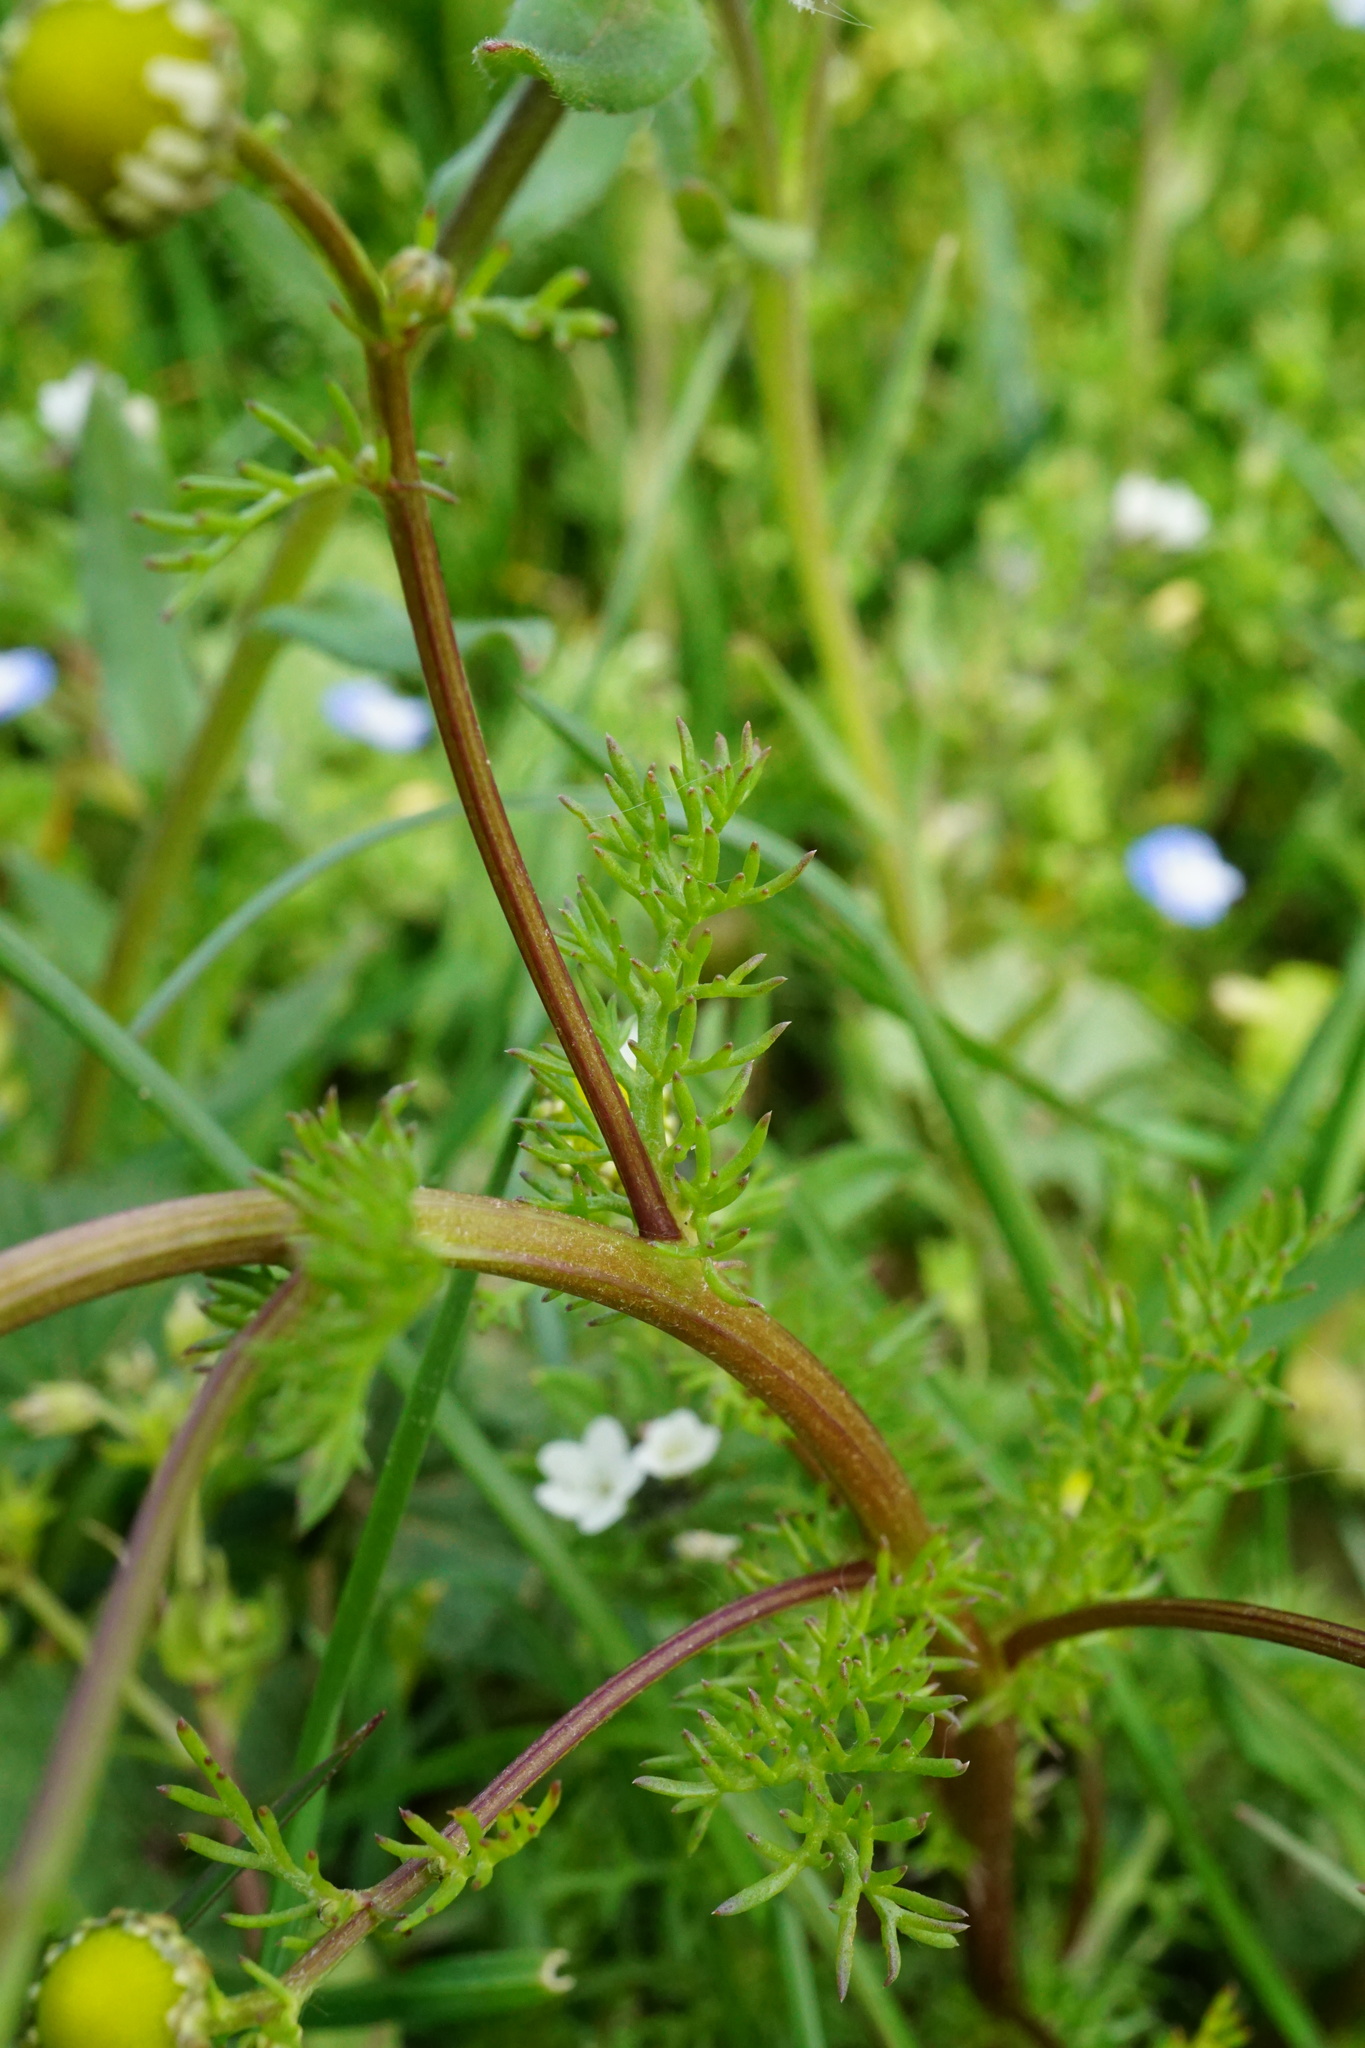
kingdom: Plantae
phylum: Tracheophyta
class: Magnoliopsida
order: Asterales
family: Asteraceae
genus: Matricaria
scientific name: Matricaria chamomilla
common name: Scented mayweed
